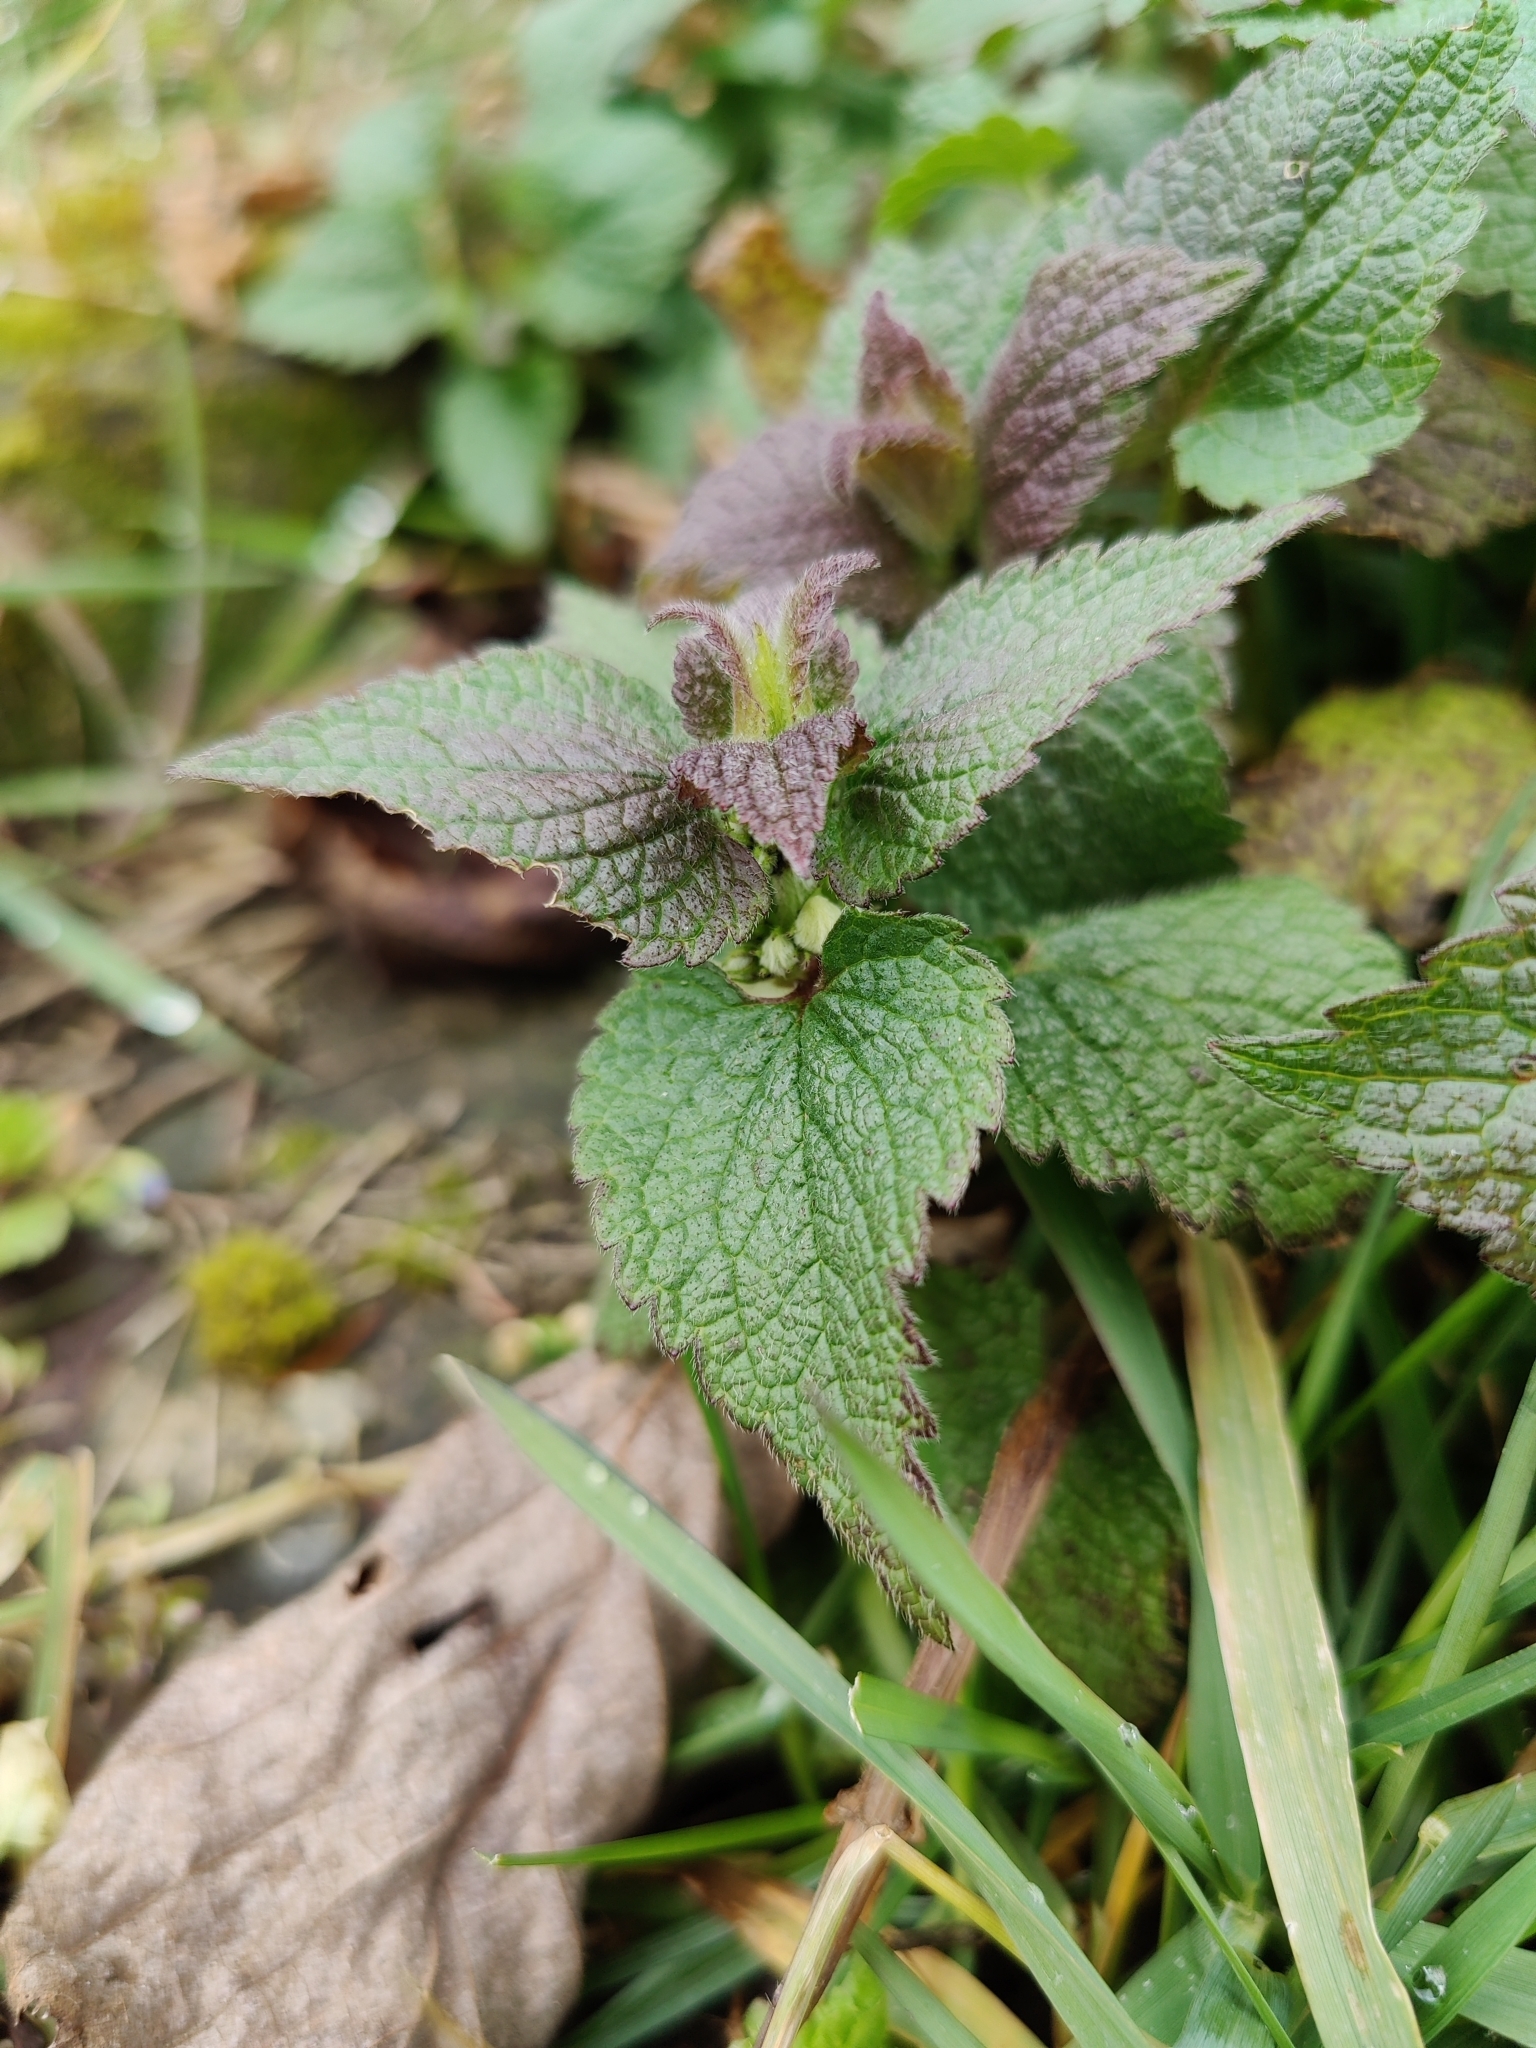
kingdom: Plantae
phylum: Tracheophyta
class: Magnoliopsida
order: Lamiales
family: Lamiaceae
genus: Lamium
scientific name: Lamium album
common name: White dead-nettle
